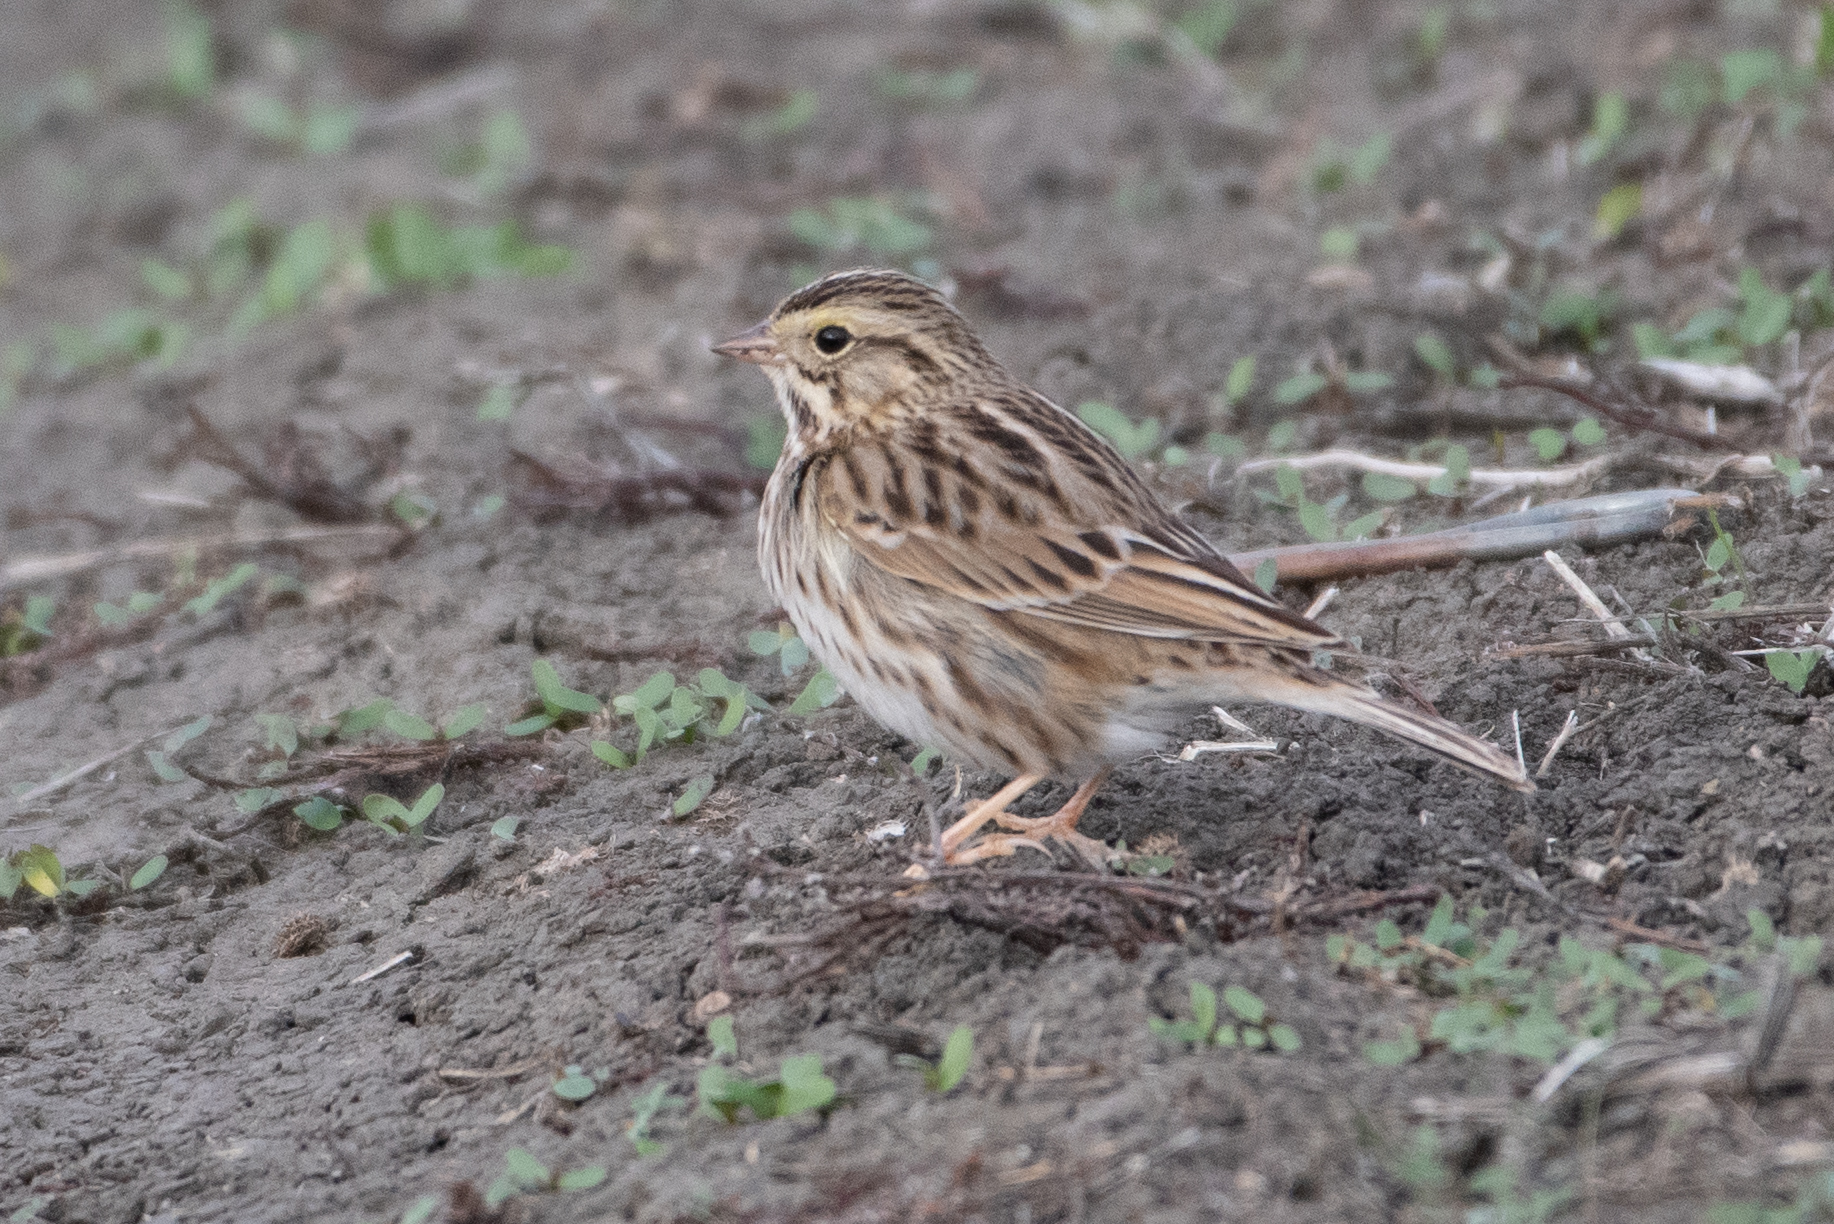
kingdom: Animalia
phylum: Chordata
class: Aves
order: Passeriformes
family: Passerellidae
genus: Passerculus
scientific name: Passerculus sandwichensis
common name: Savannah sparrow
